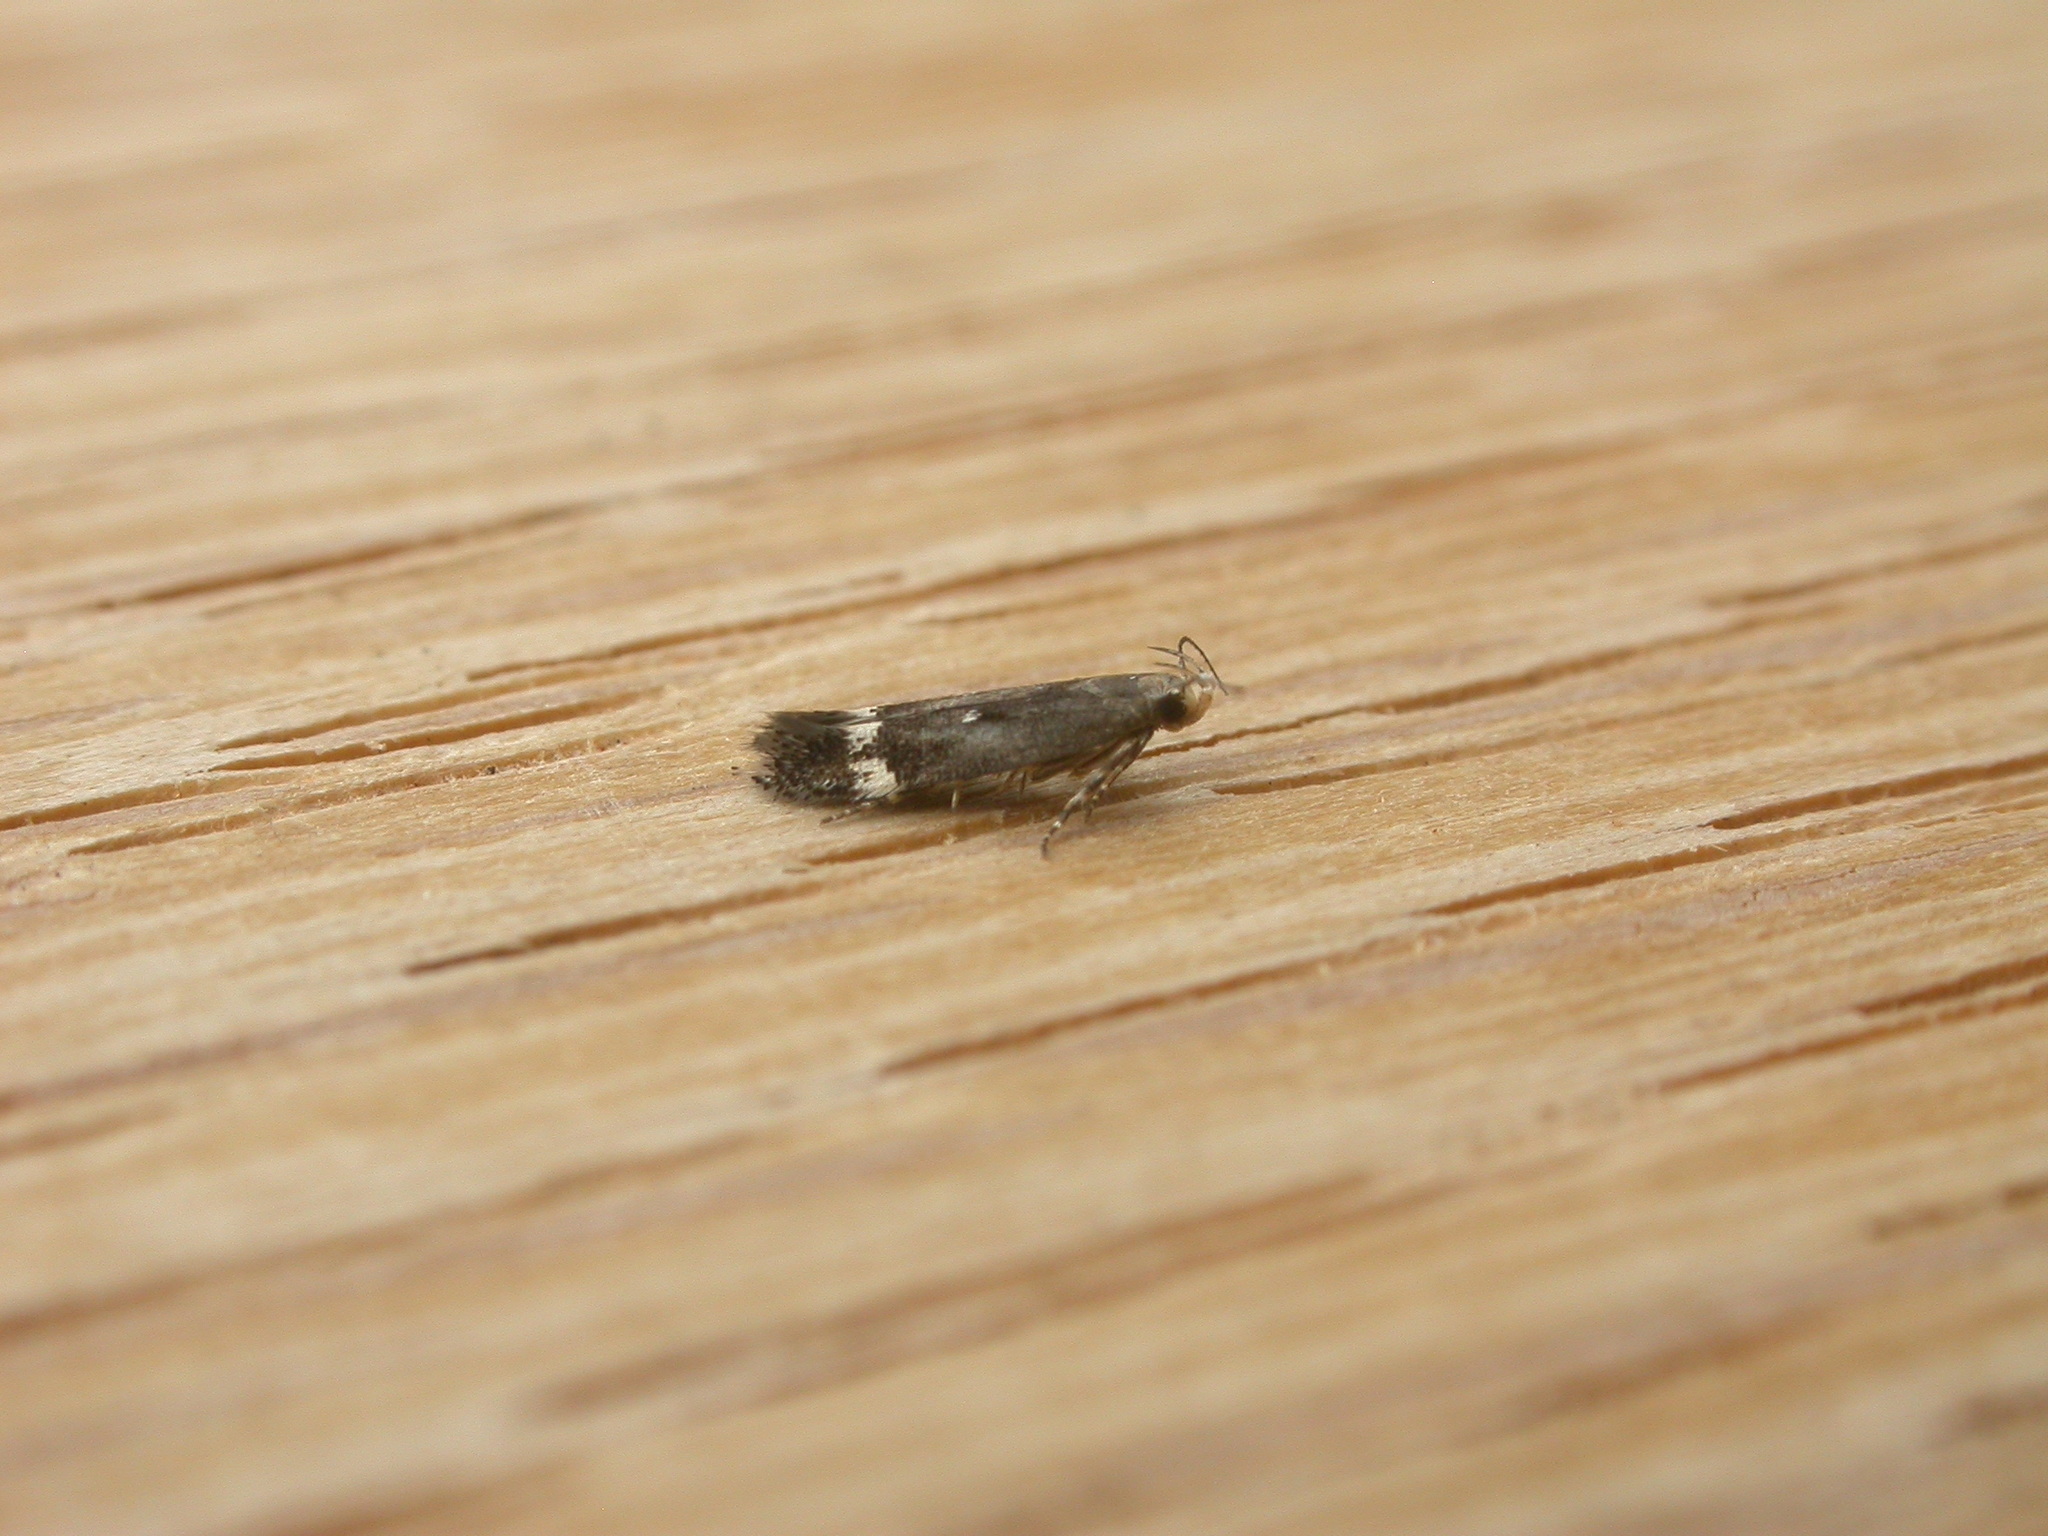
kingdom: Animalia
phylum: Arthropoda
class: Insecta
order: Lepidoptera
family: Gelechiidae
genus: Aproaerema
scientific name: Aproaerema simplexella
